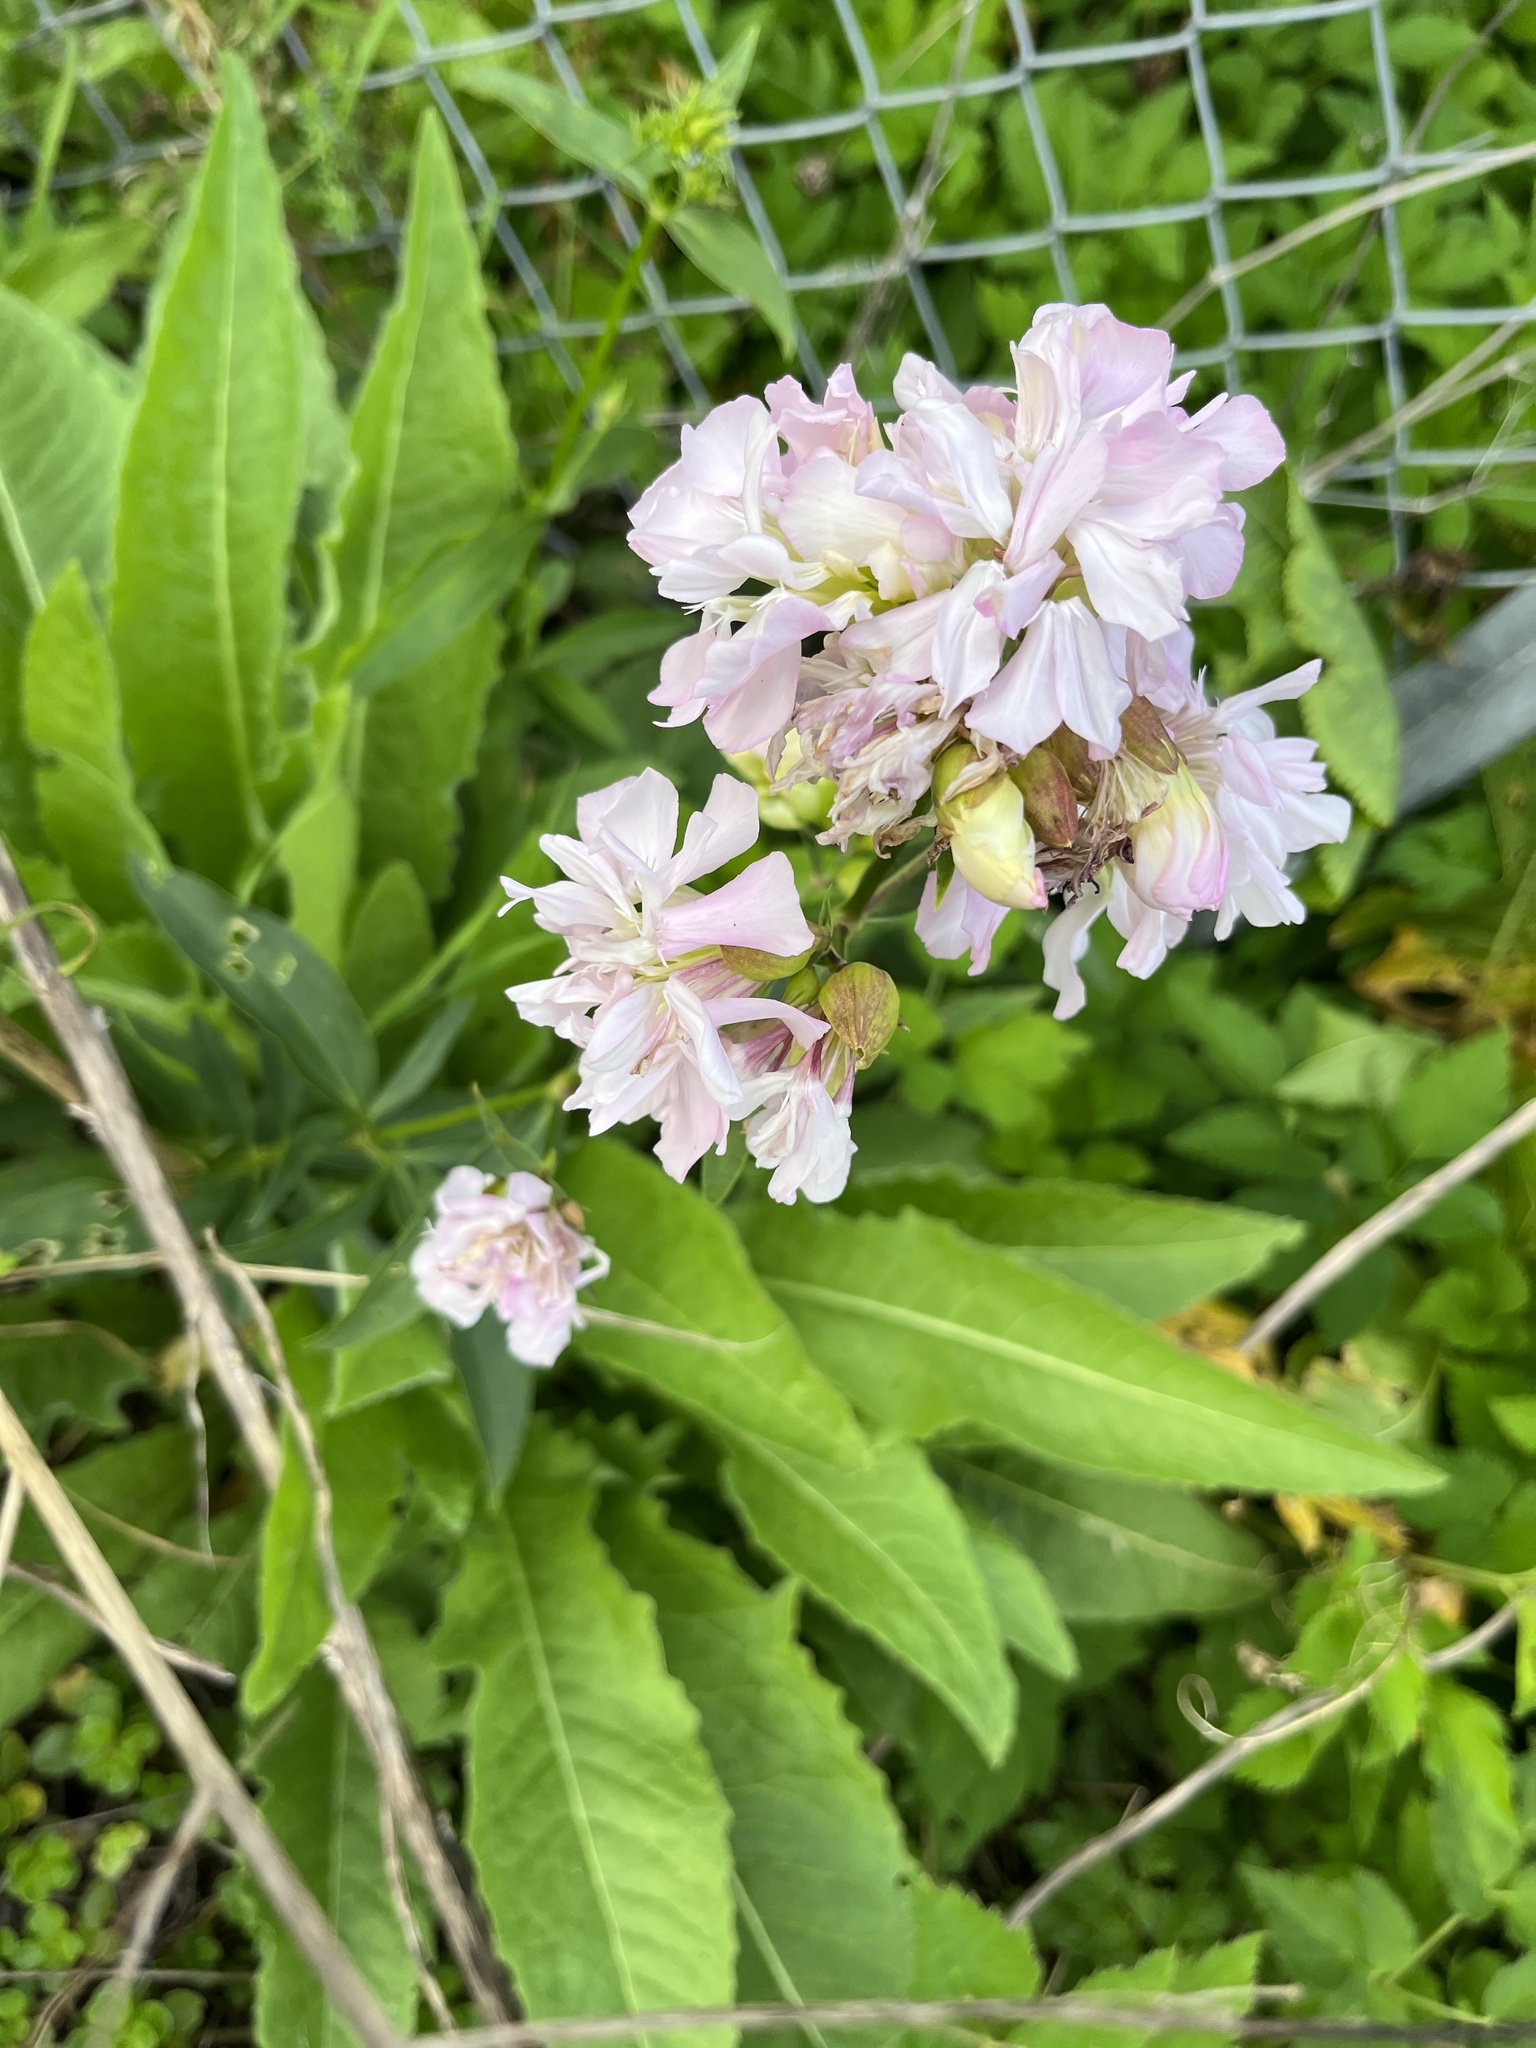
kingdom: Plantae
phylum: Tracheophyta
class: Magnoliopsida
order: Caryophyllales
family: Caryophyllaceae
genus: Saponaria
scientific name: Saponaria officinalis
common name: Soapwort
